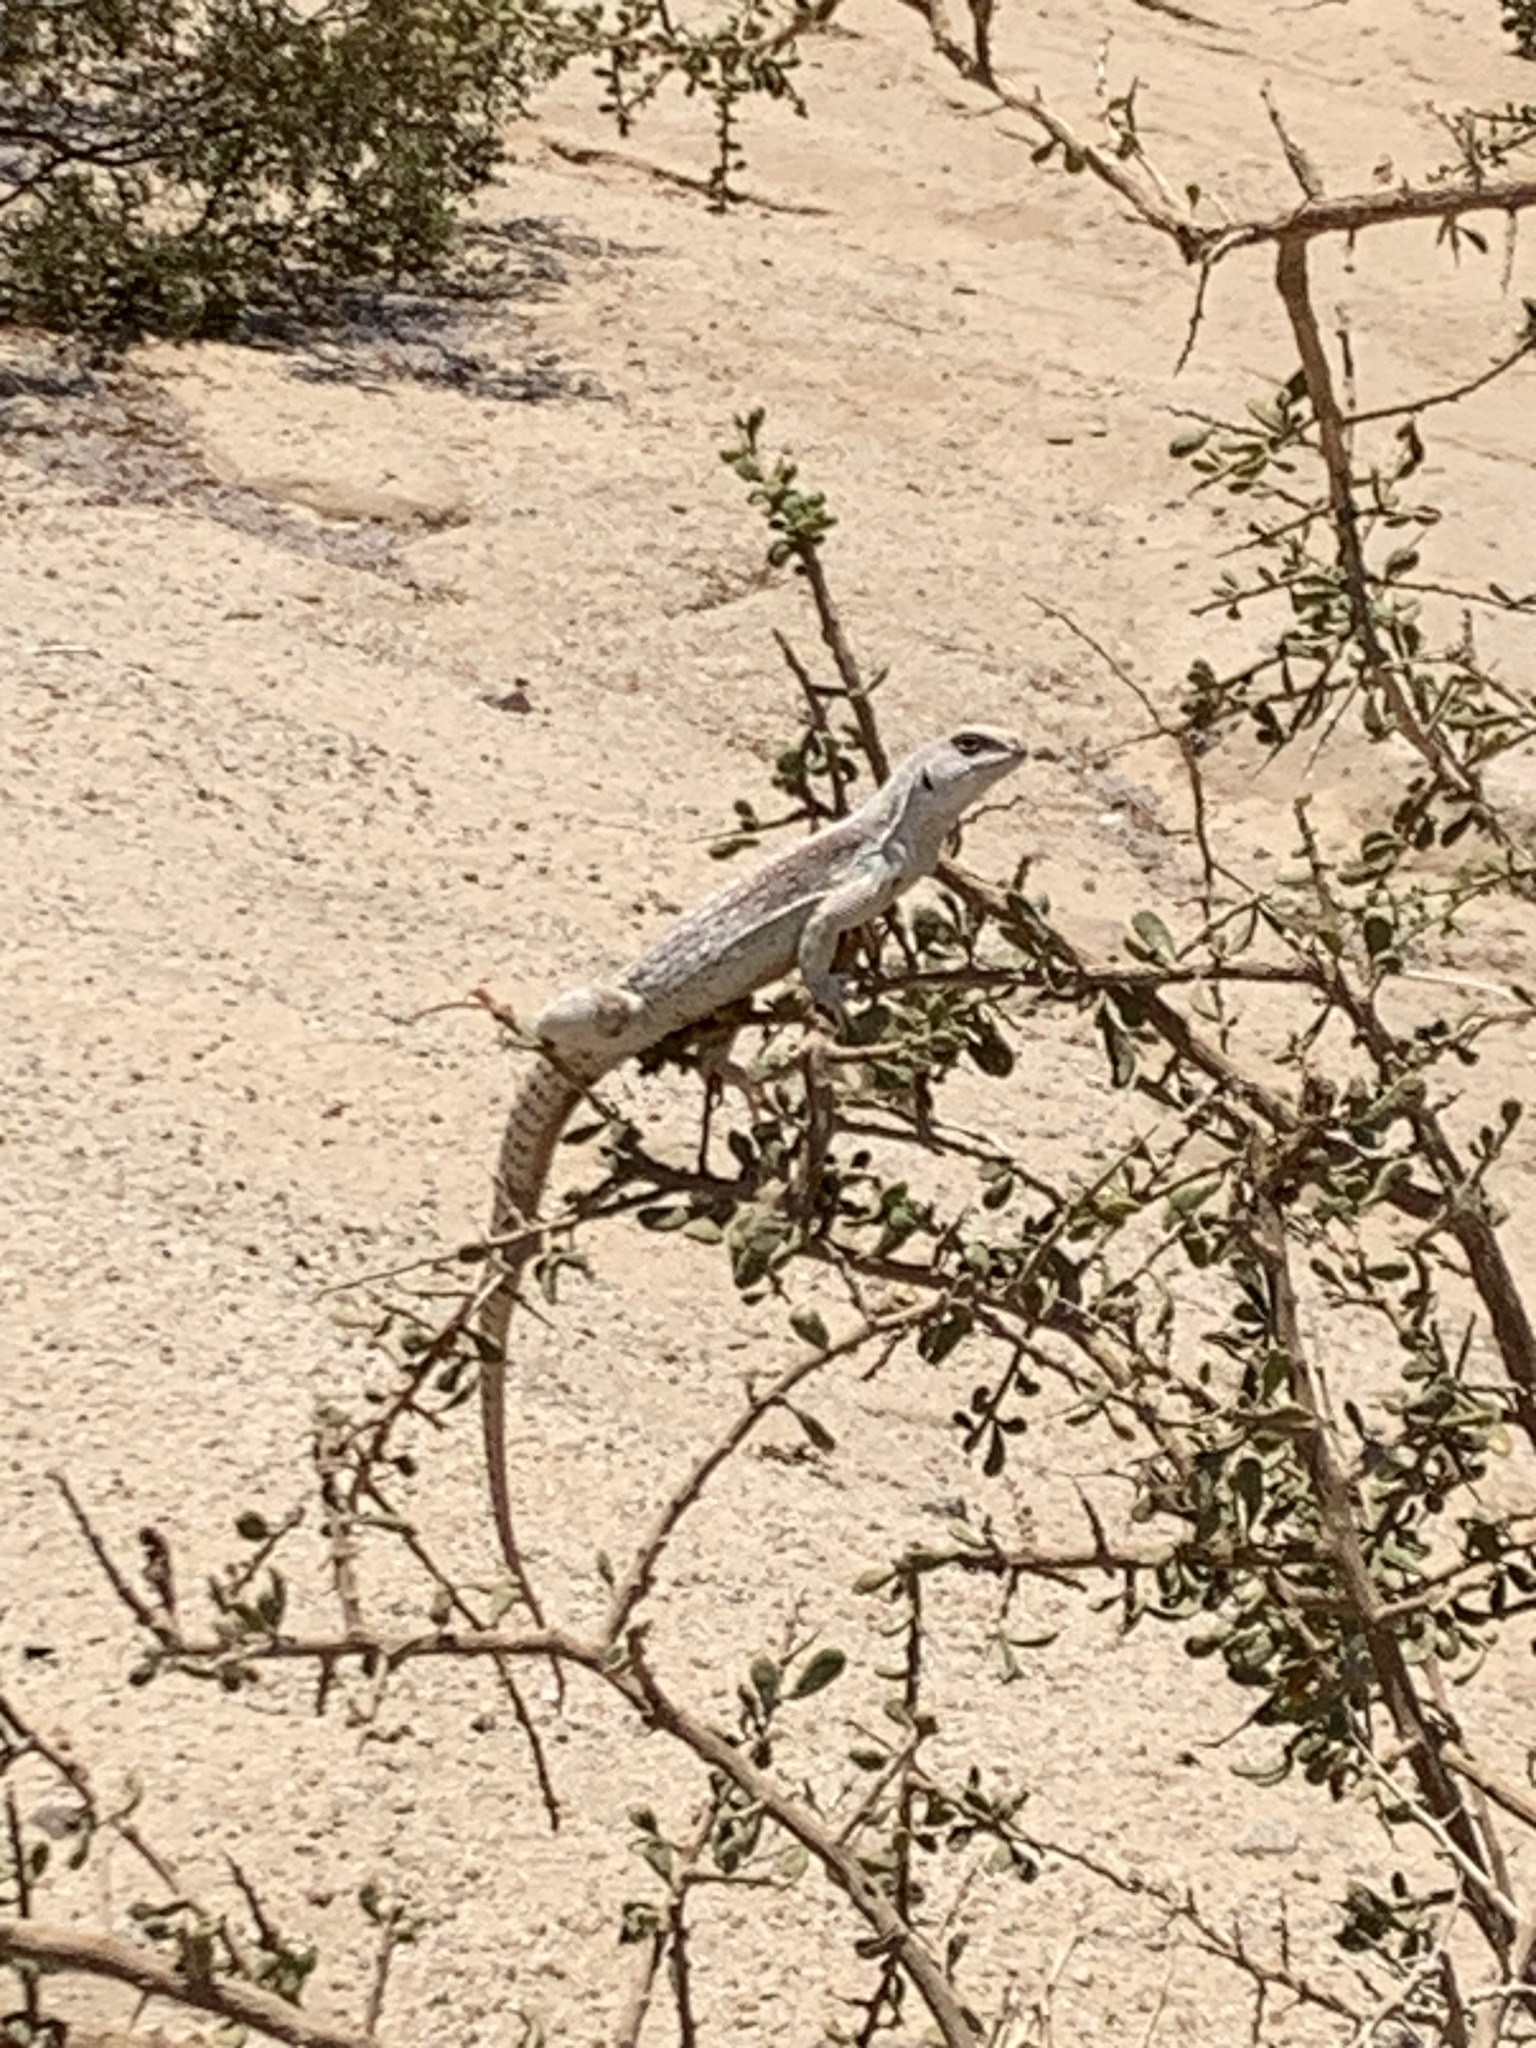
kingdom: Animalia
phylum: Chordata
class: Squamata
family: Iguanidae
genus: Dipsosaurus
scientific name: Dipsosaurus dorsalis
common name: Desert iguana
